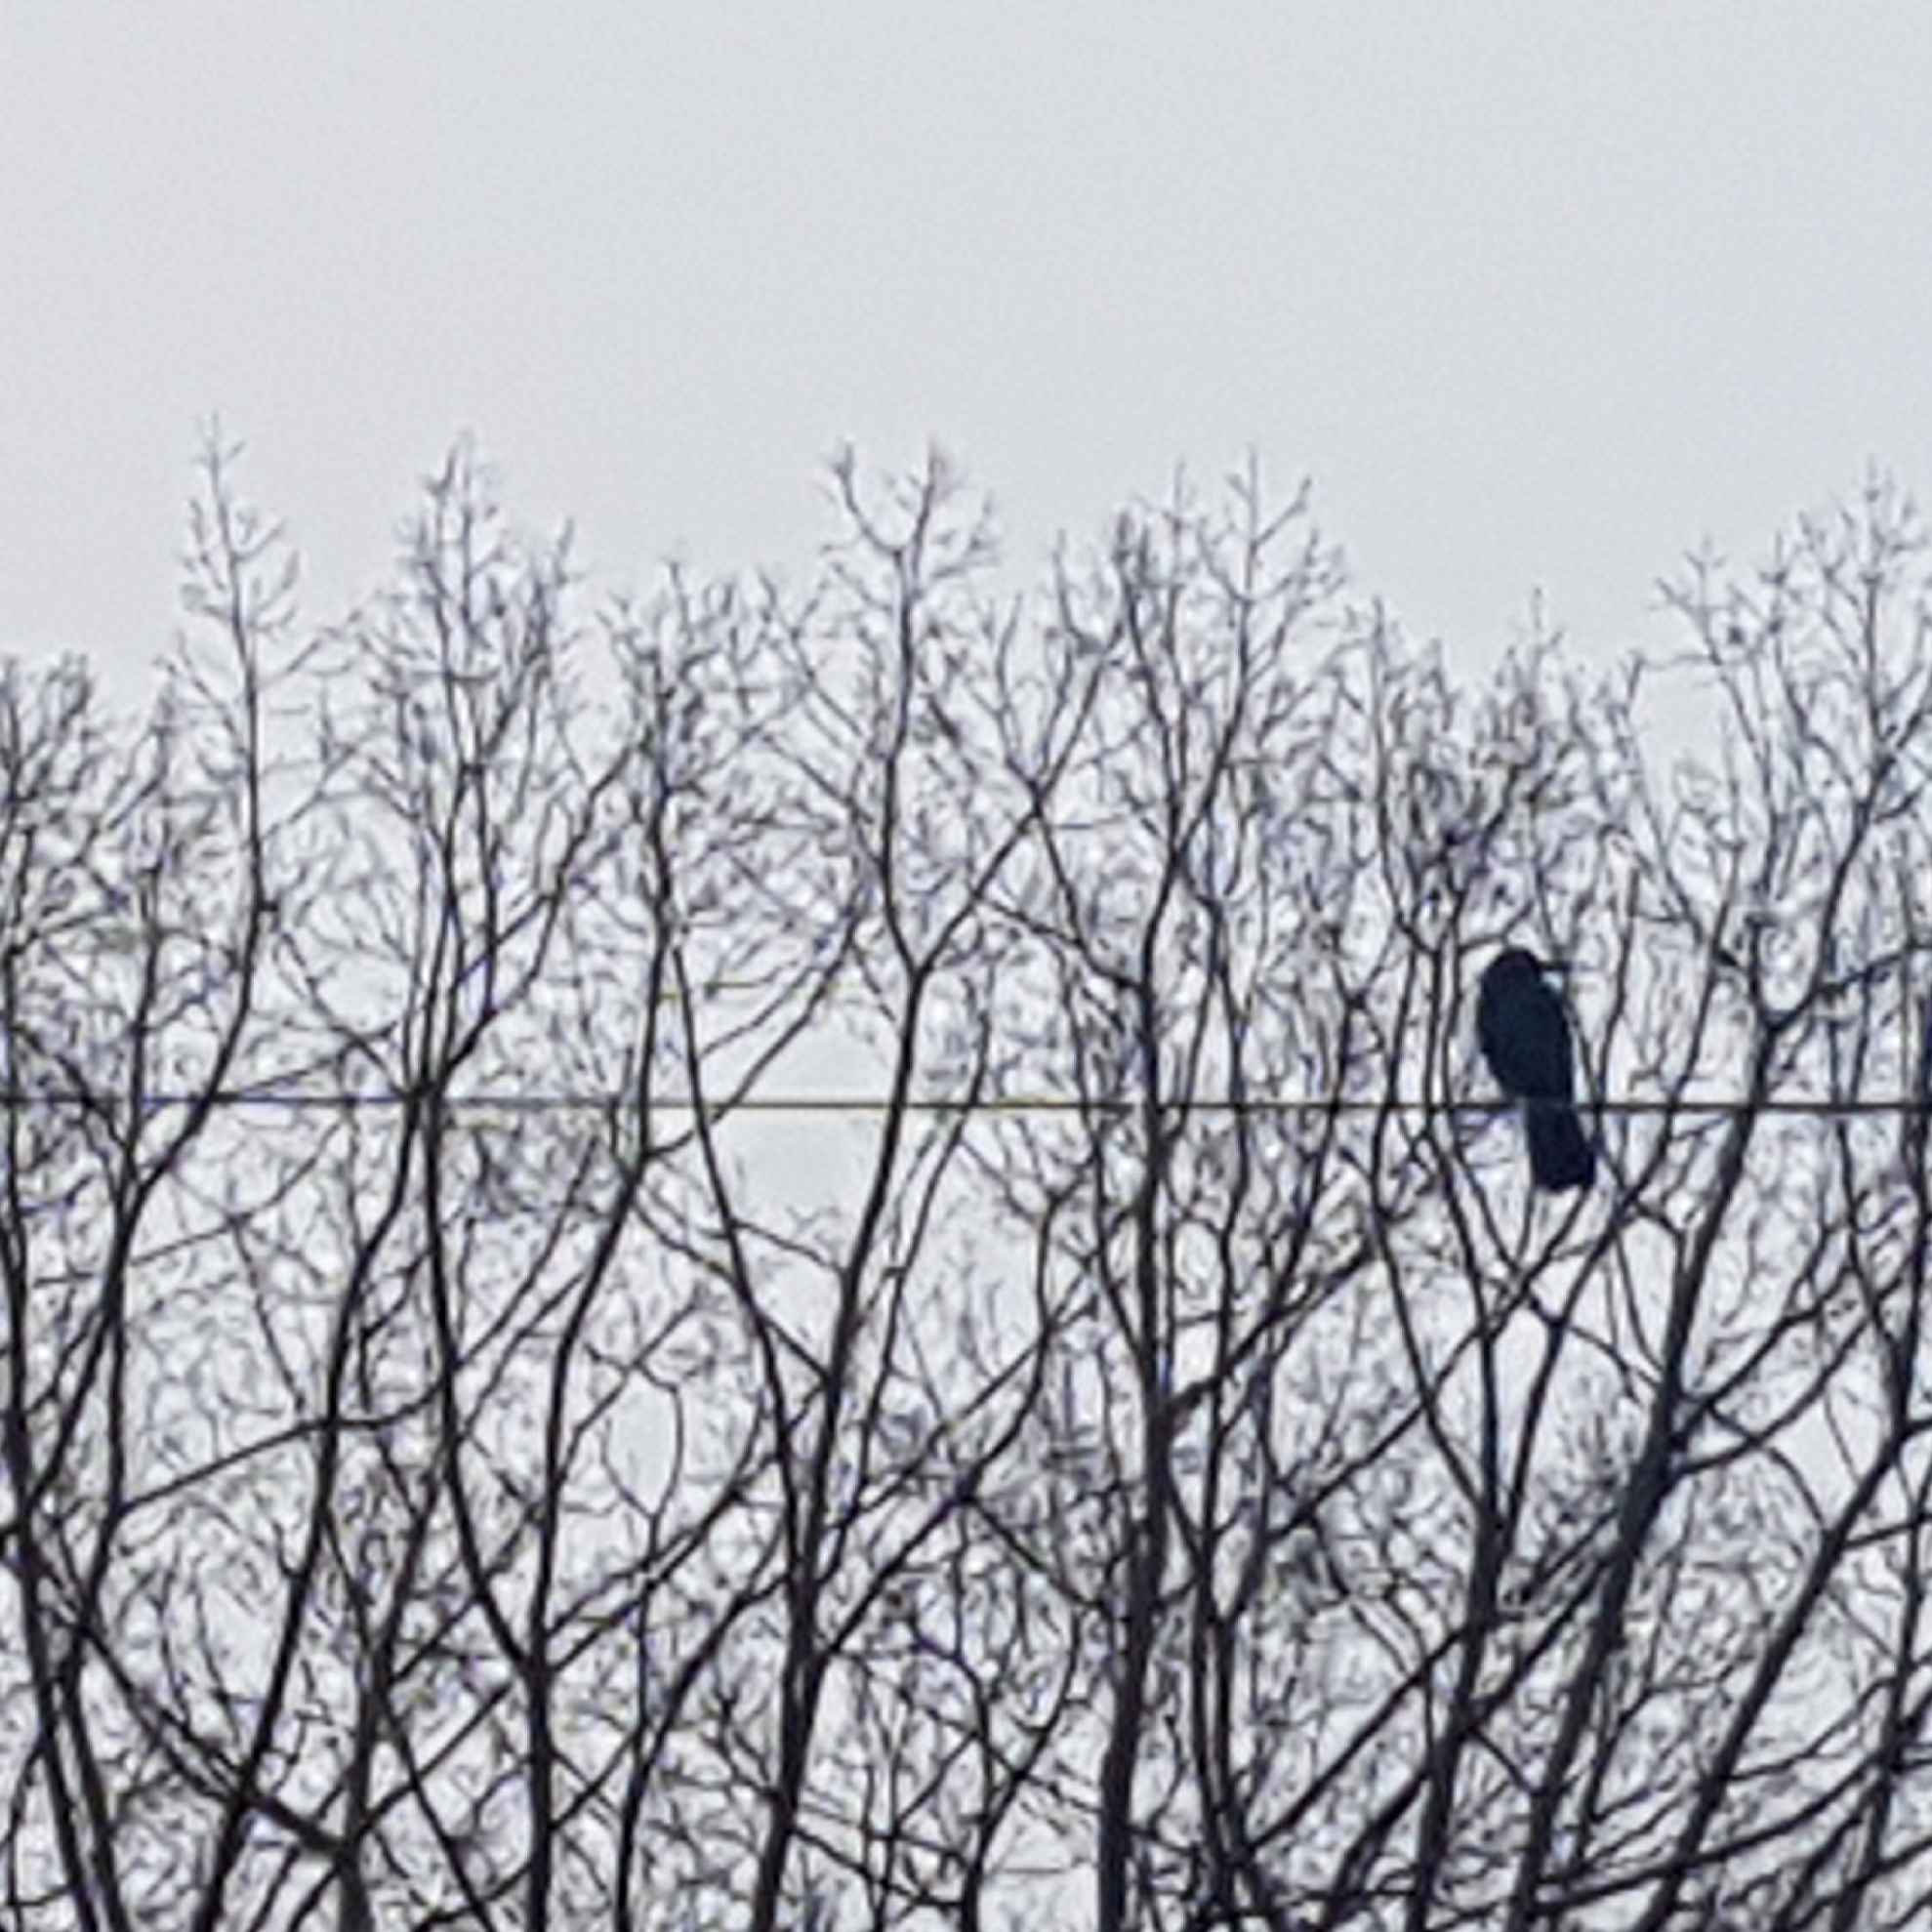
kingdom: Animalia
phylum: Chordata
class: Aves
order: Passeriformes
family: Corvidae
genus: Corvus
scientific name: Corvus brachyrhynchos
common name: American crow
